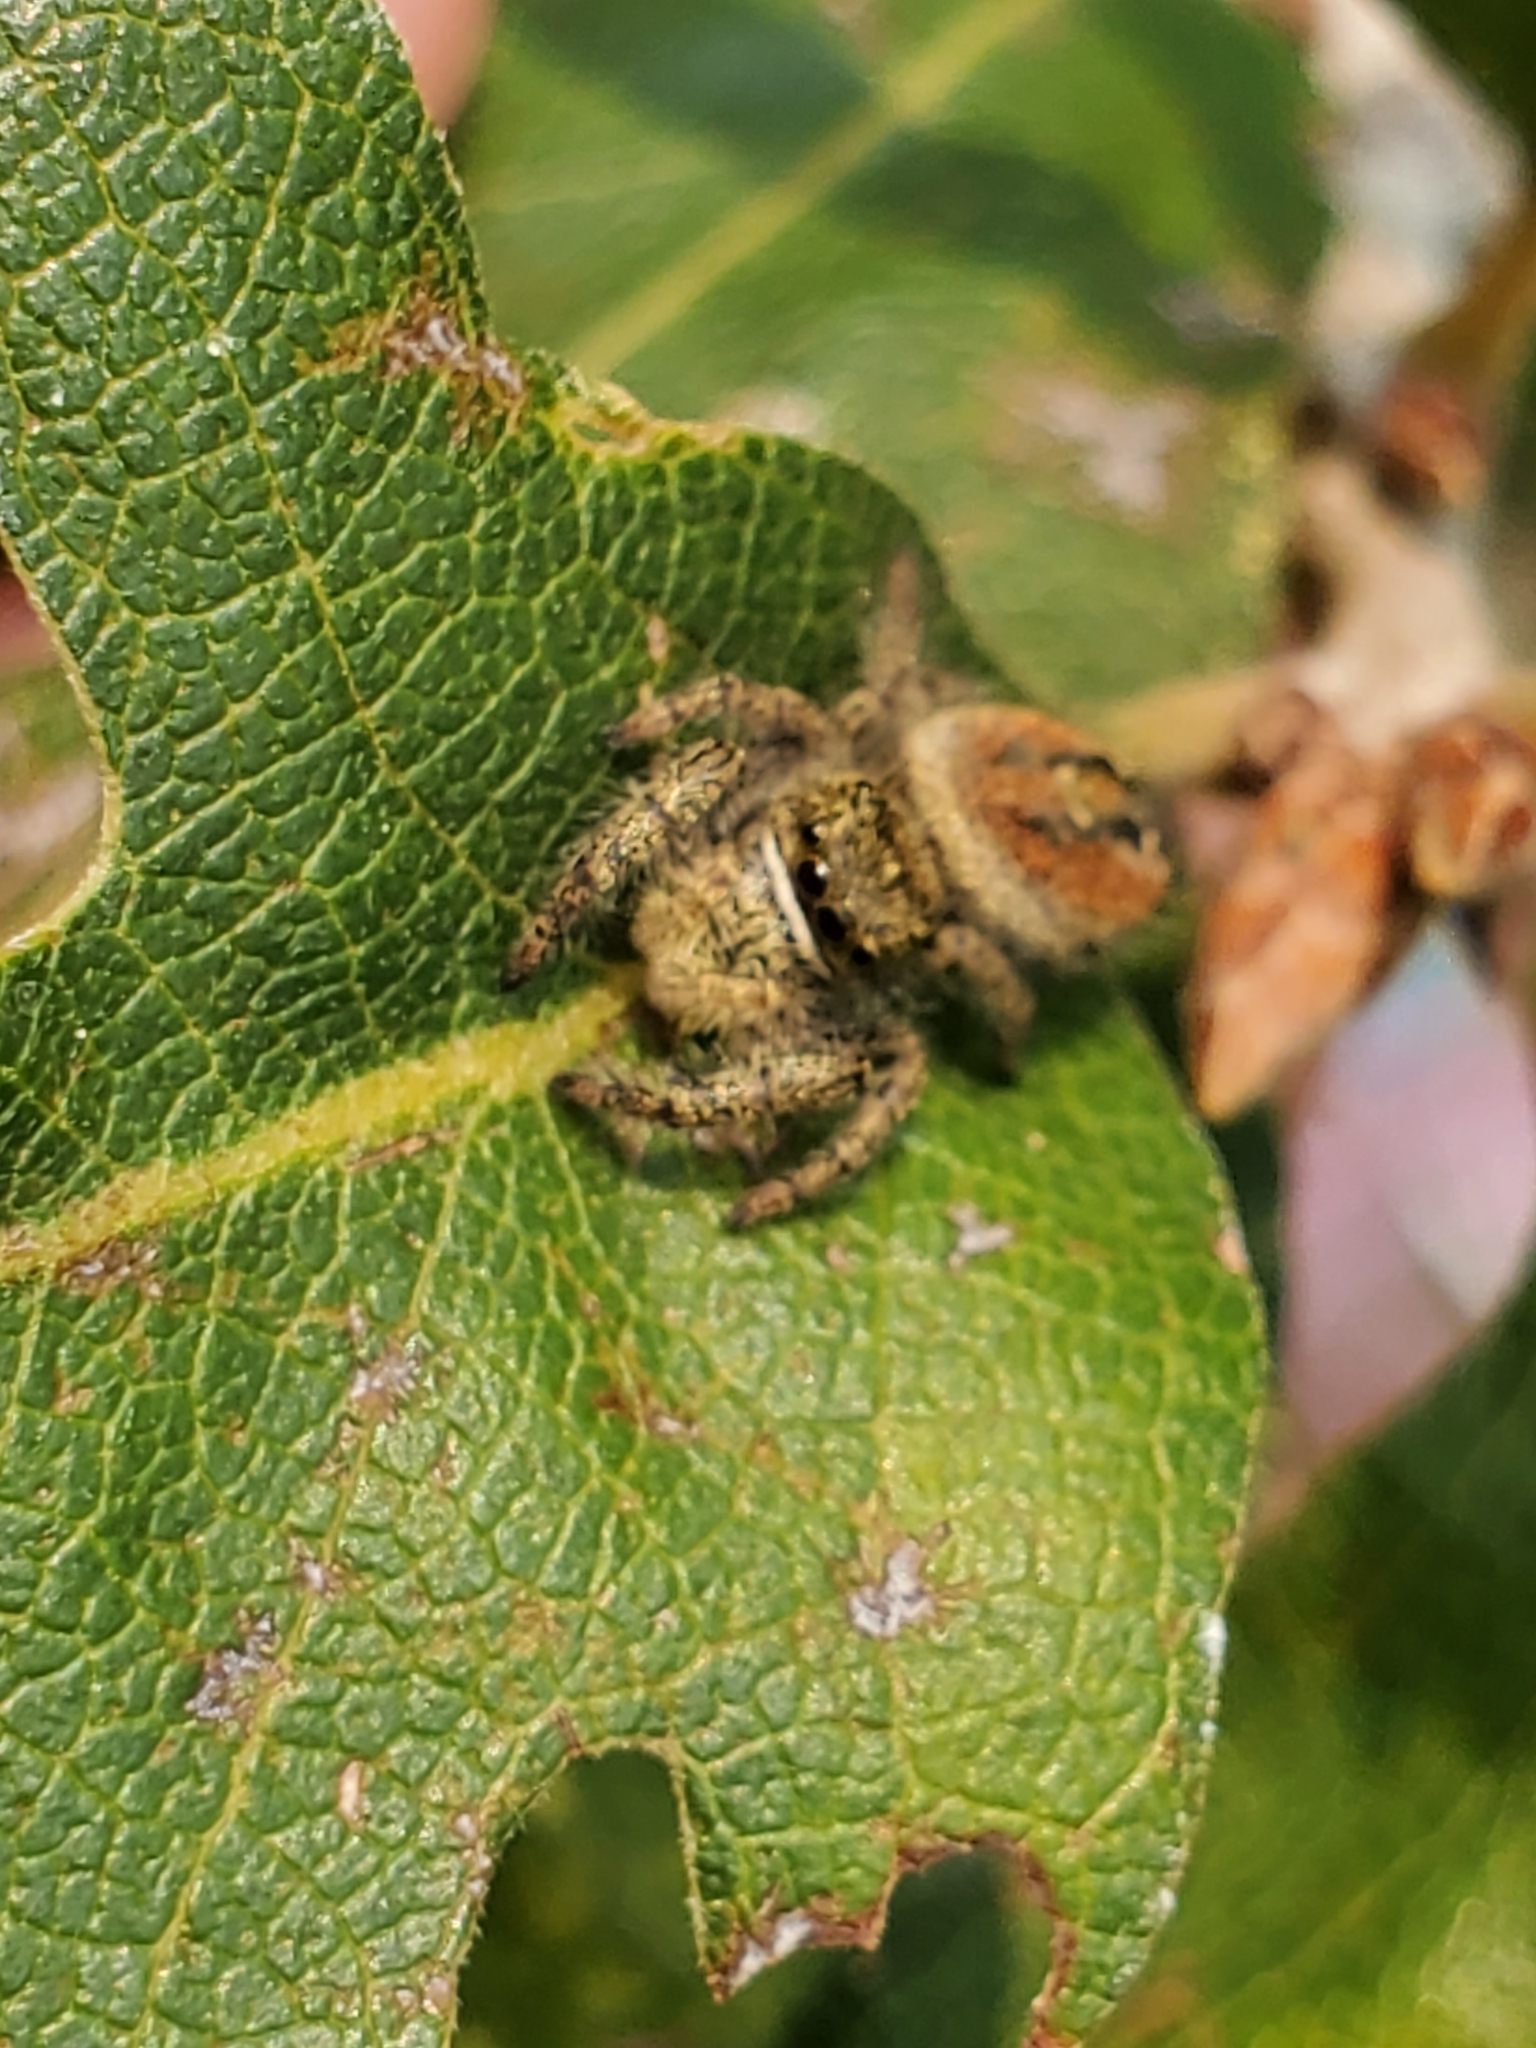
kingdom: Animalia
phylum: Arthropoda
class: Arachnida
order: Araneae
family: Salticidae
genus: Phidippus
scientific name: Phidippus johnsoni
